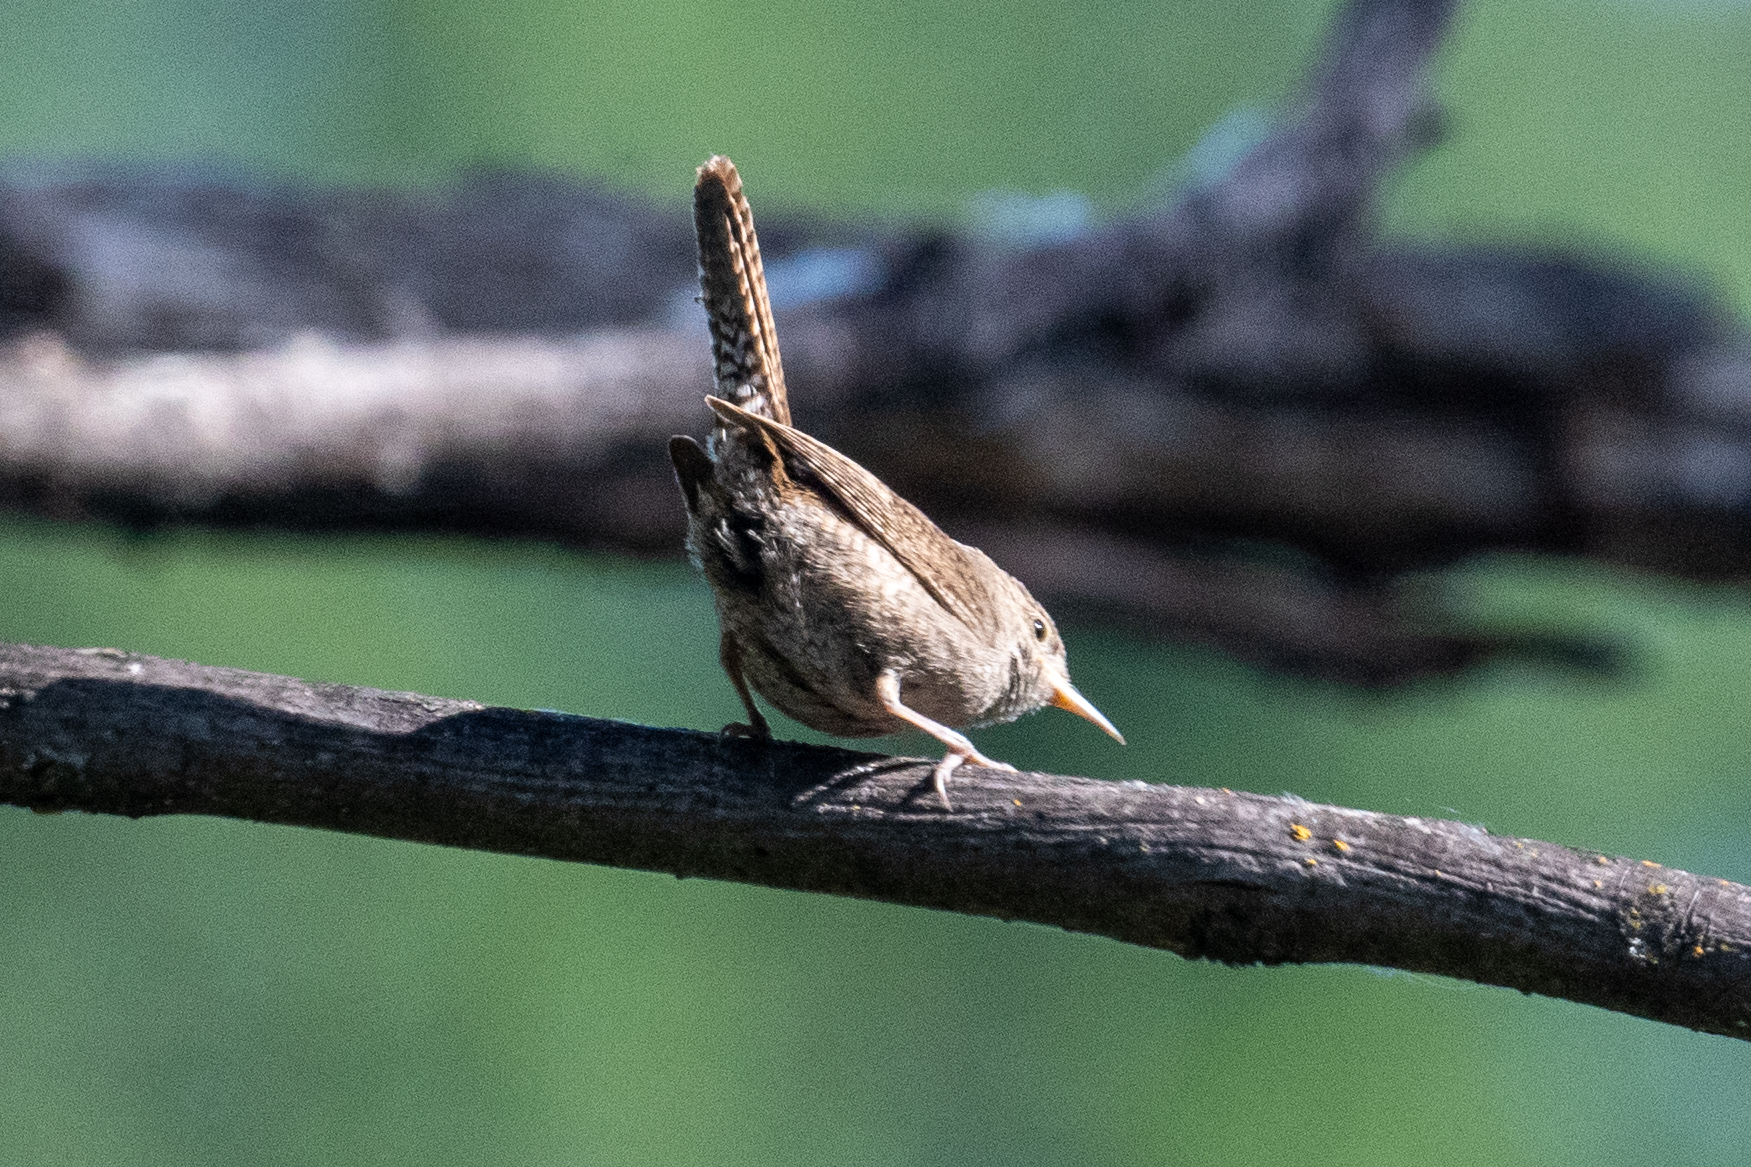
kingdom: Animalia
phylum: Chordata
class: Aves
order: Passeriformes
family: Troglodytidae
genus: Troglodytes
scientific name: Troglodytes aedon
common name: House wren
